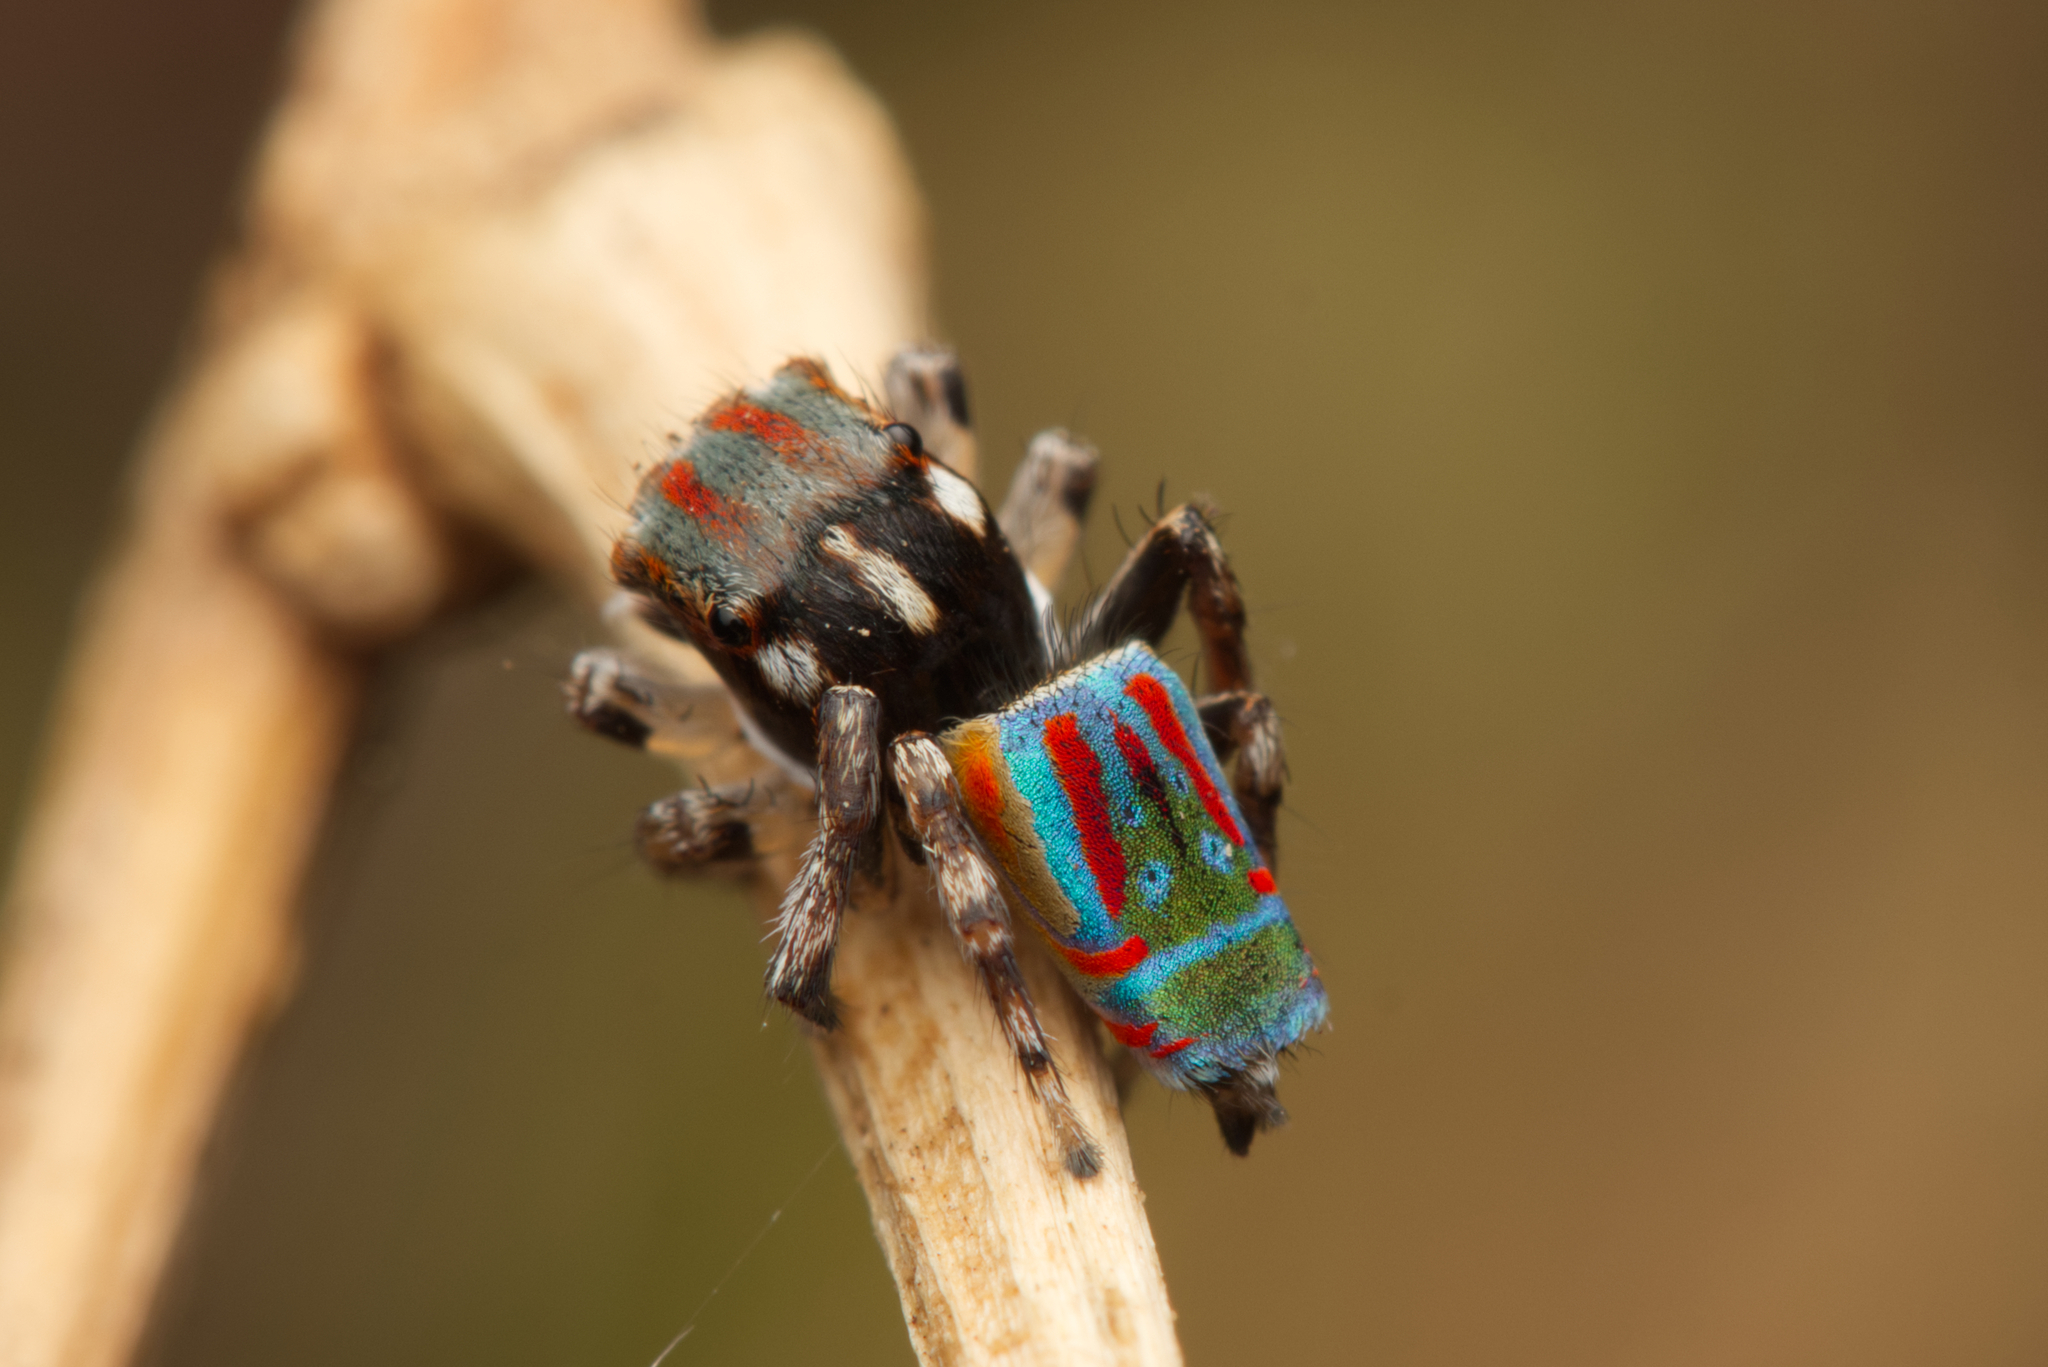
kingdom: Animalia
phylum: Arthropoda
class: Arachnida
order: Araneae
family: Salticidae
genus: Maratus
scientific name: Maratus volans
